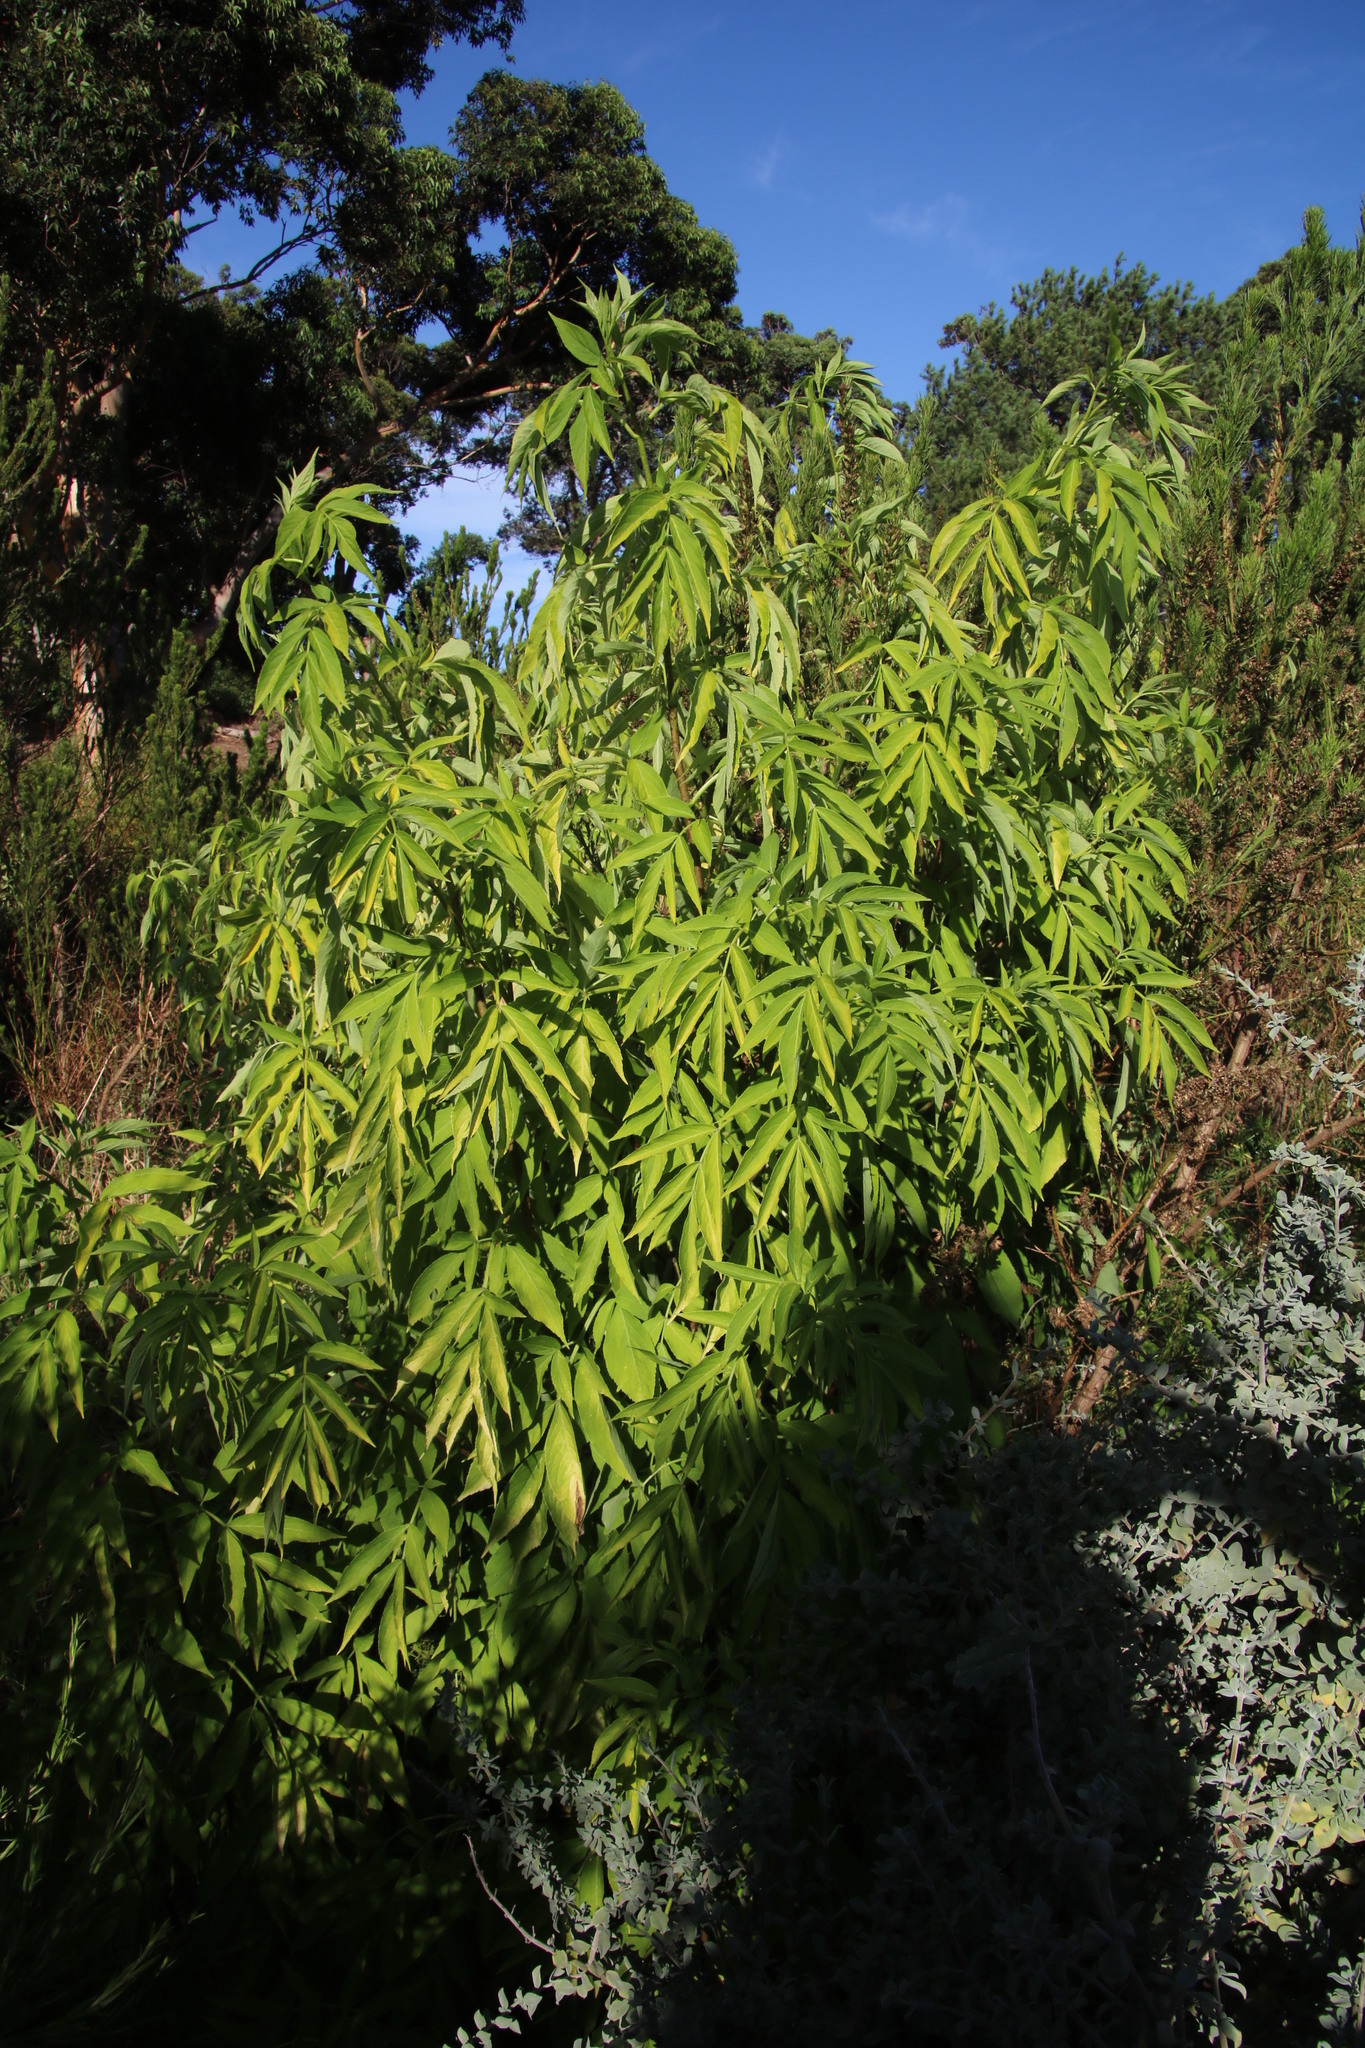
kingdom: Plantae
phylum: Tracheophyta
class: Magnoliopsida
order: Dipsacales
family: Viburnaceae
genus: Sambucus
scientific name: Sambucus nigra
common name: Elder
